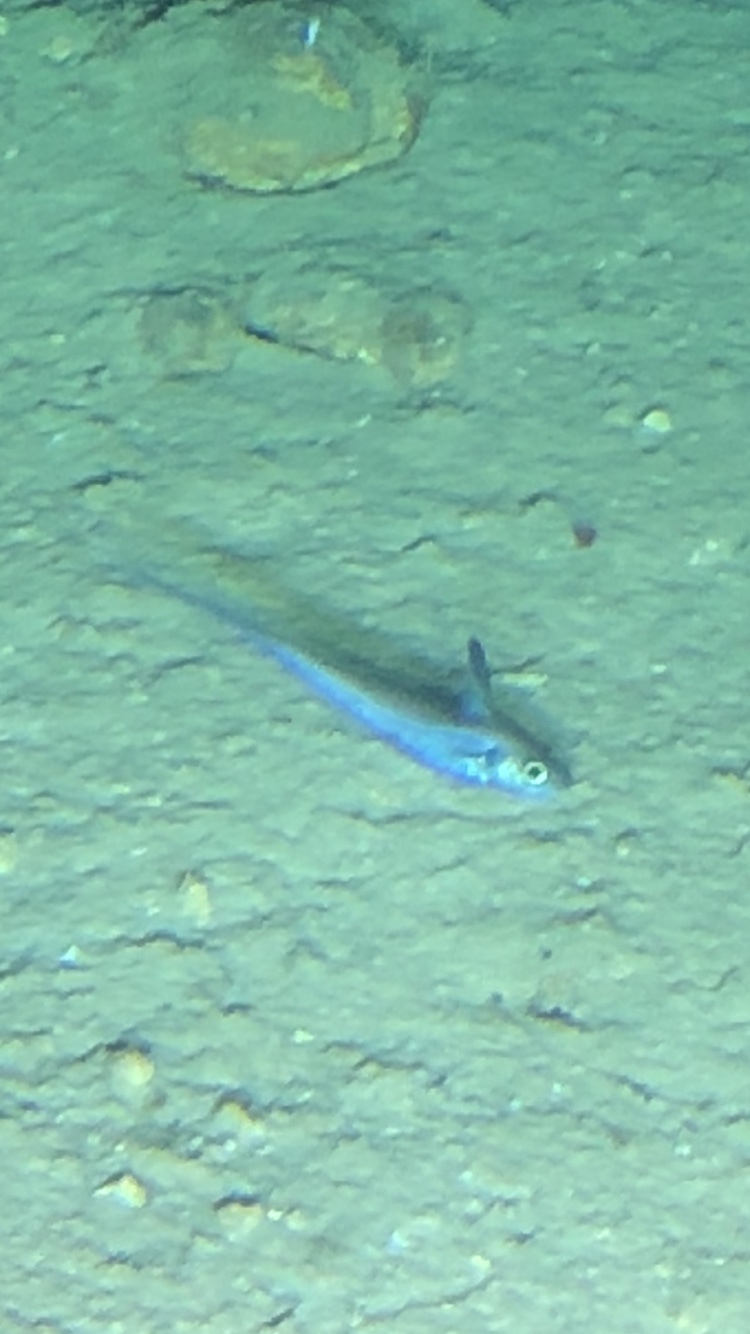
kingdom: Animalia
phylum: Chordata
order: Gadiformes
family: Macrouridae
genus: Nezumia
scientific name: Nezumia aequalis
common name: Common atlantic grenadier
